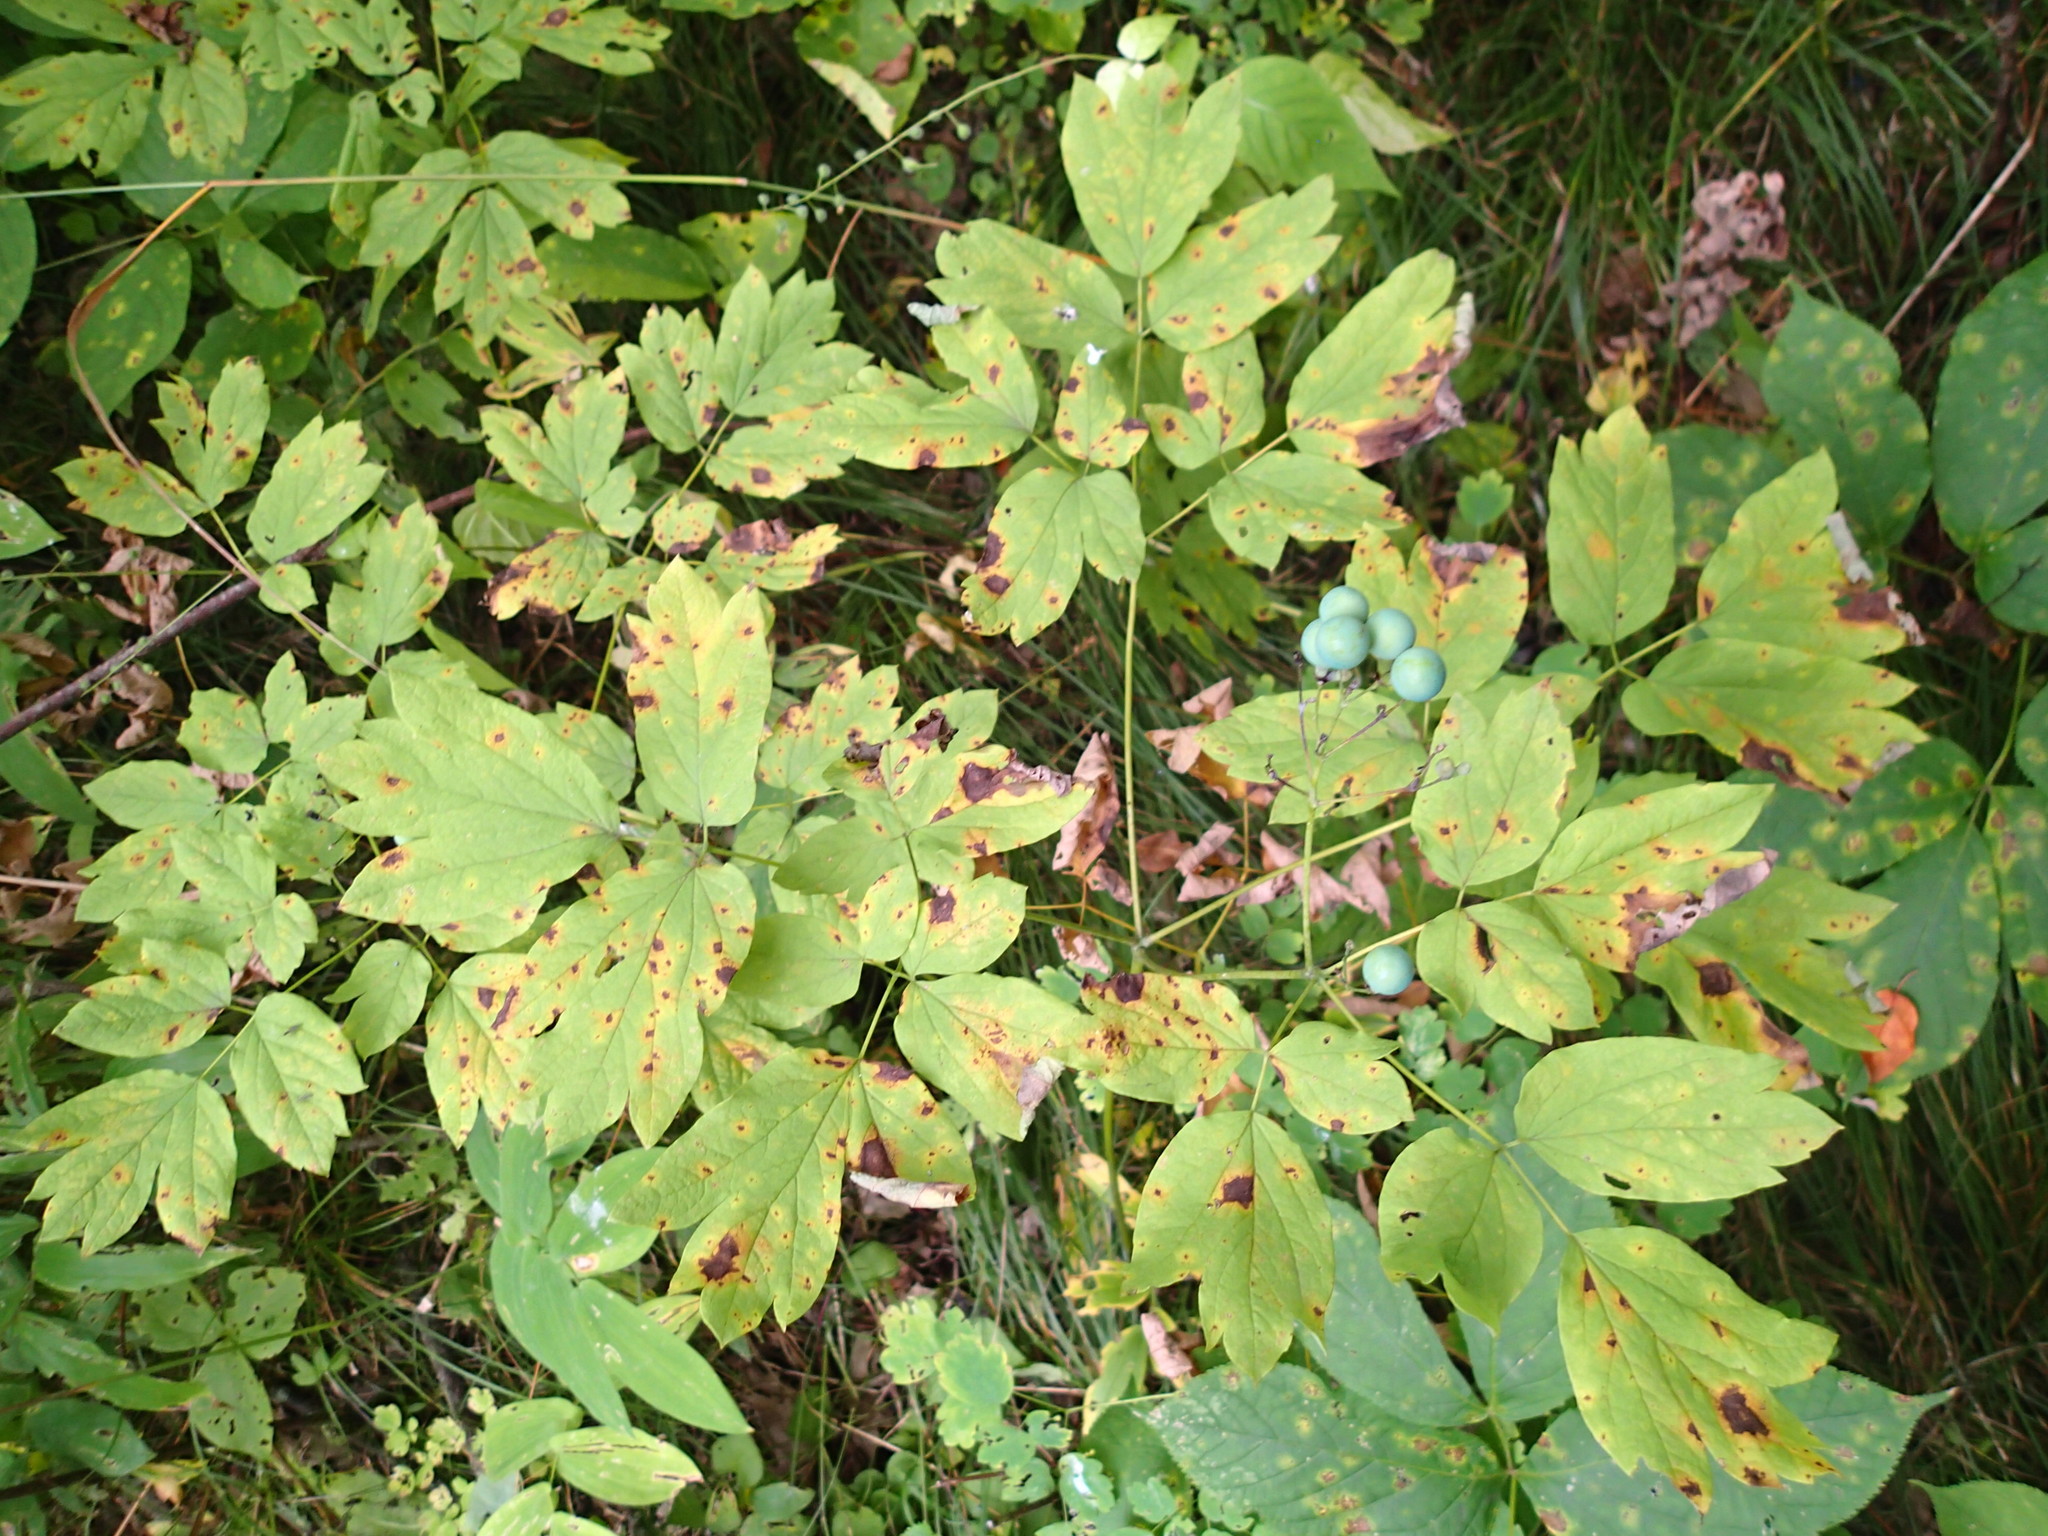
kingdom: Plantae
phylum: Tracheophyta
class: Magnoliopsida
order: Ranunculales
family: Berberidaceae
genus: Caulophyllum
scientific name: Caulophyllum thalictroides
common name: Blue cohosh
